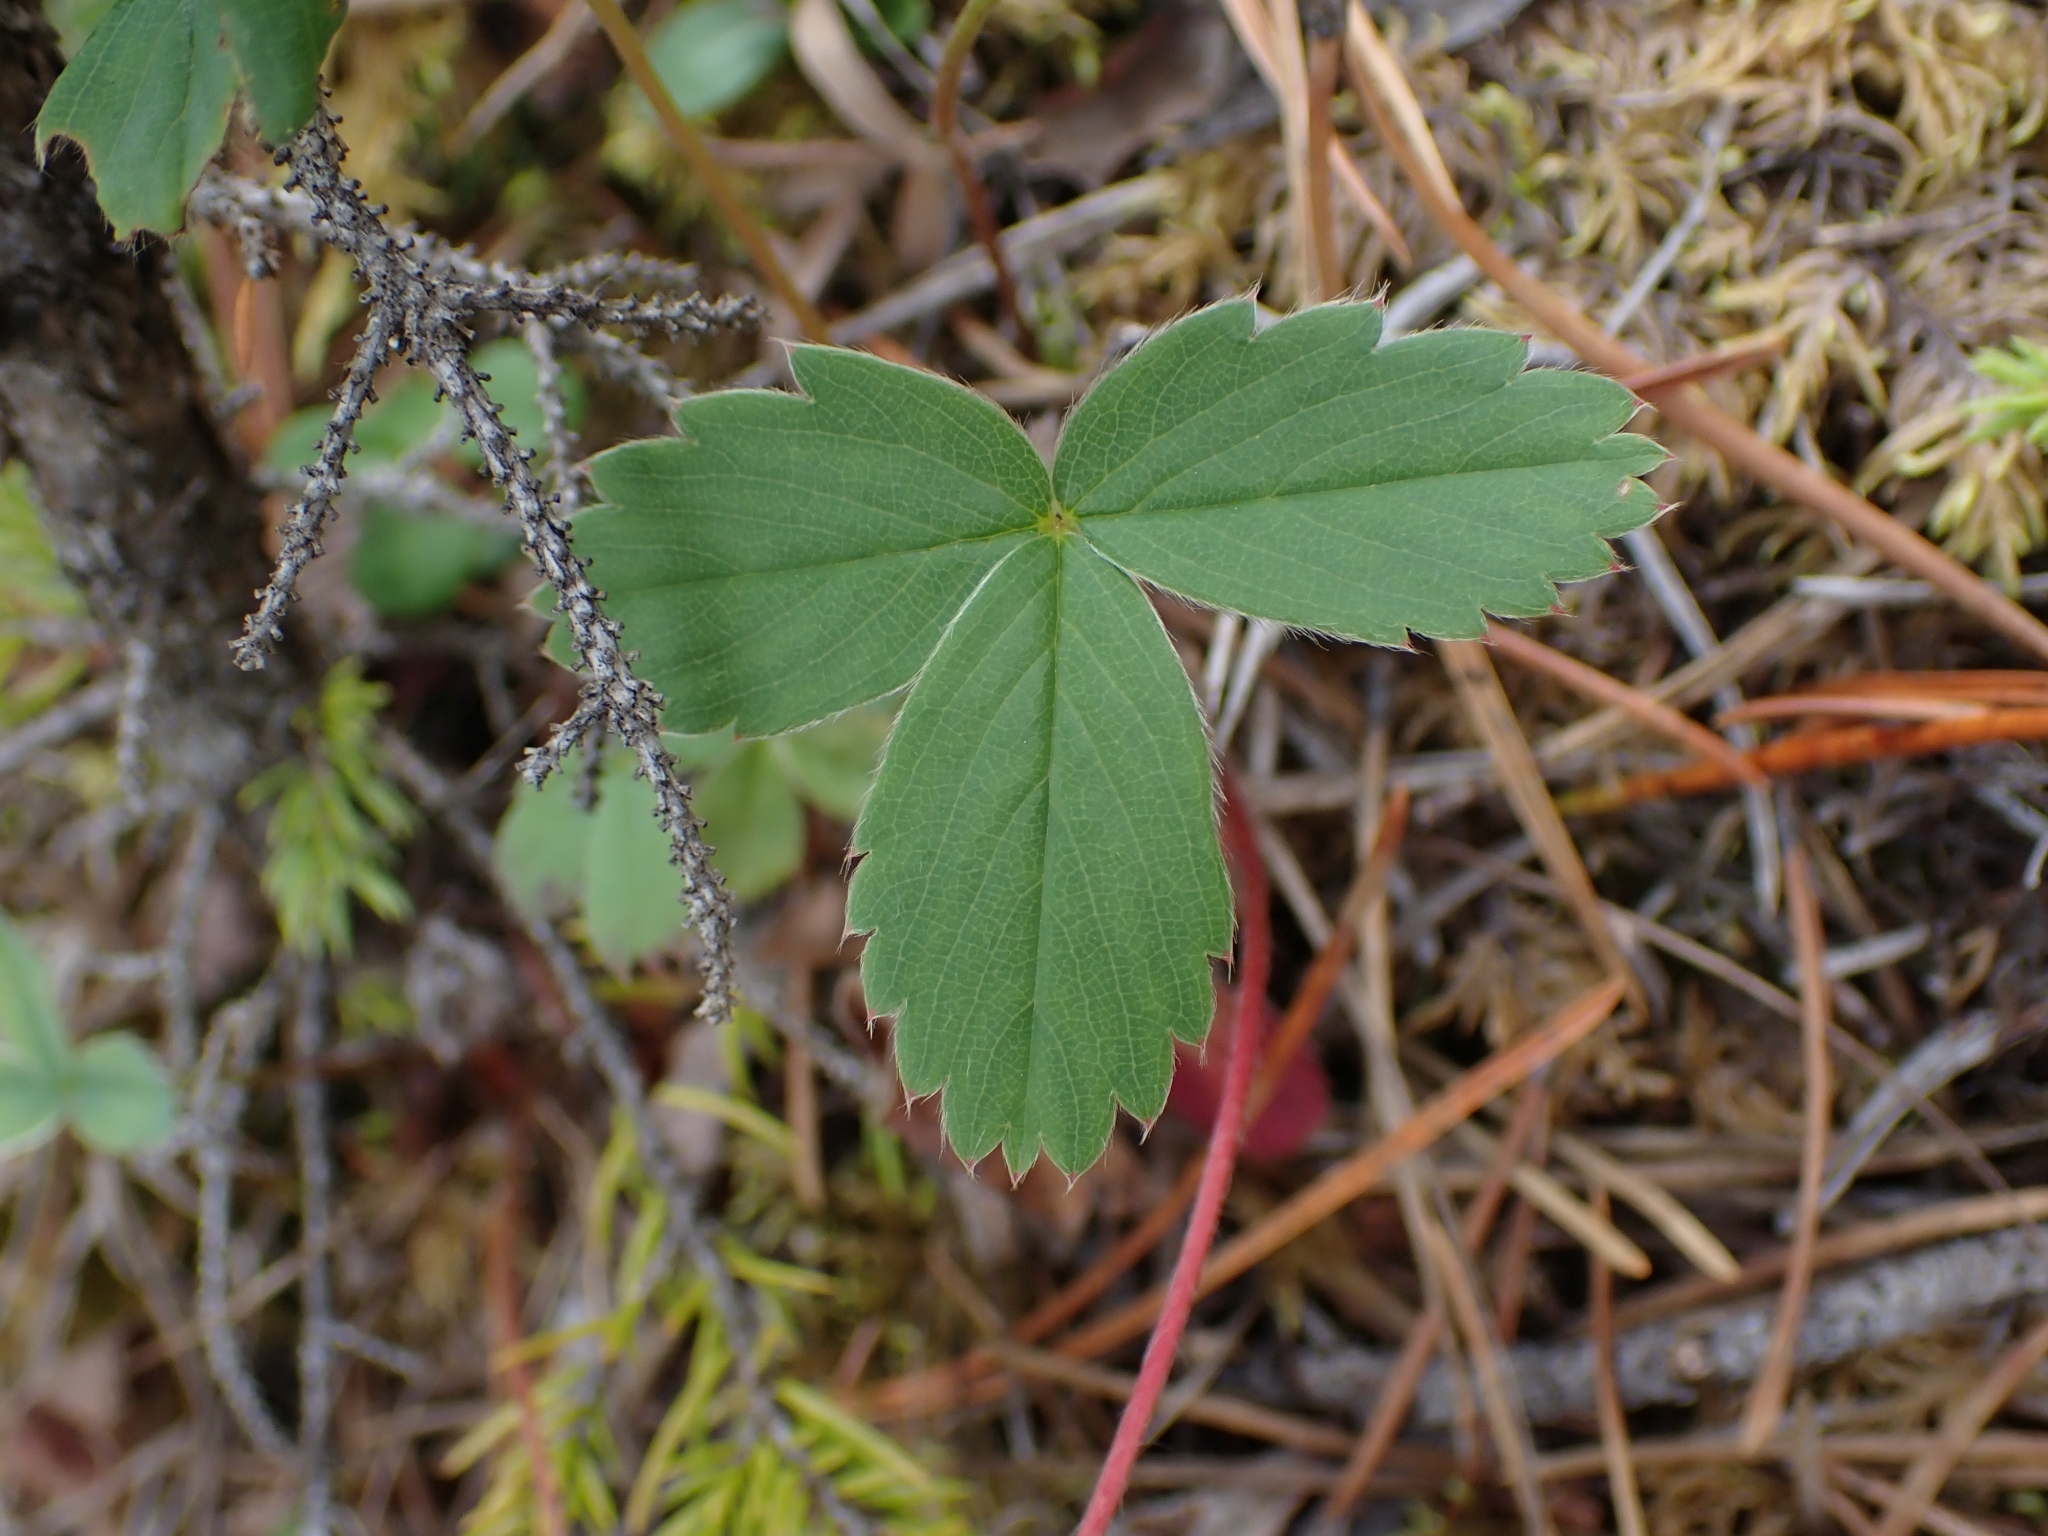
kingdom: Plantae
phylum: Tracheophyta
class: Magnoliopsida
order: Rosales
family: Rosaceae
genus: Fragaria
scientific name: Fragaria virginiana
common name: Thickleaved wild strawberry
